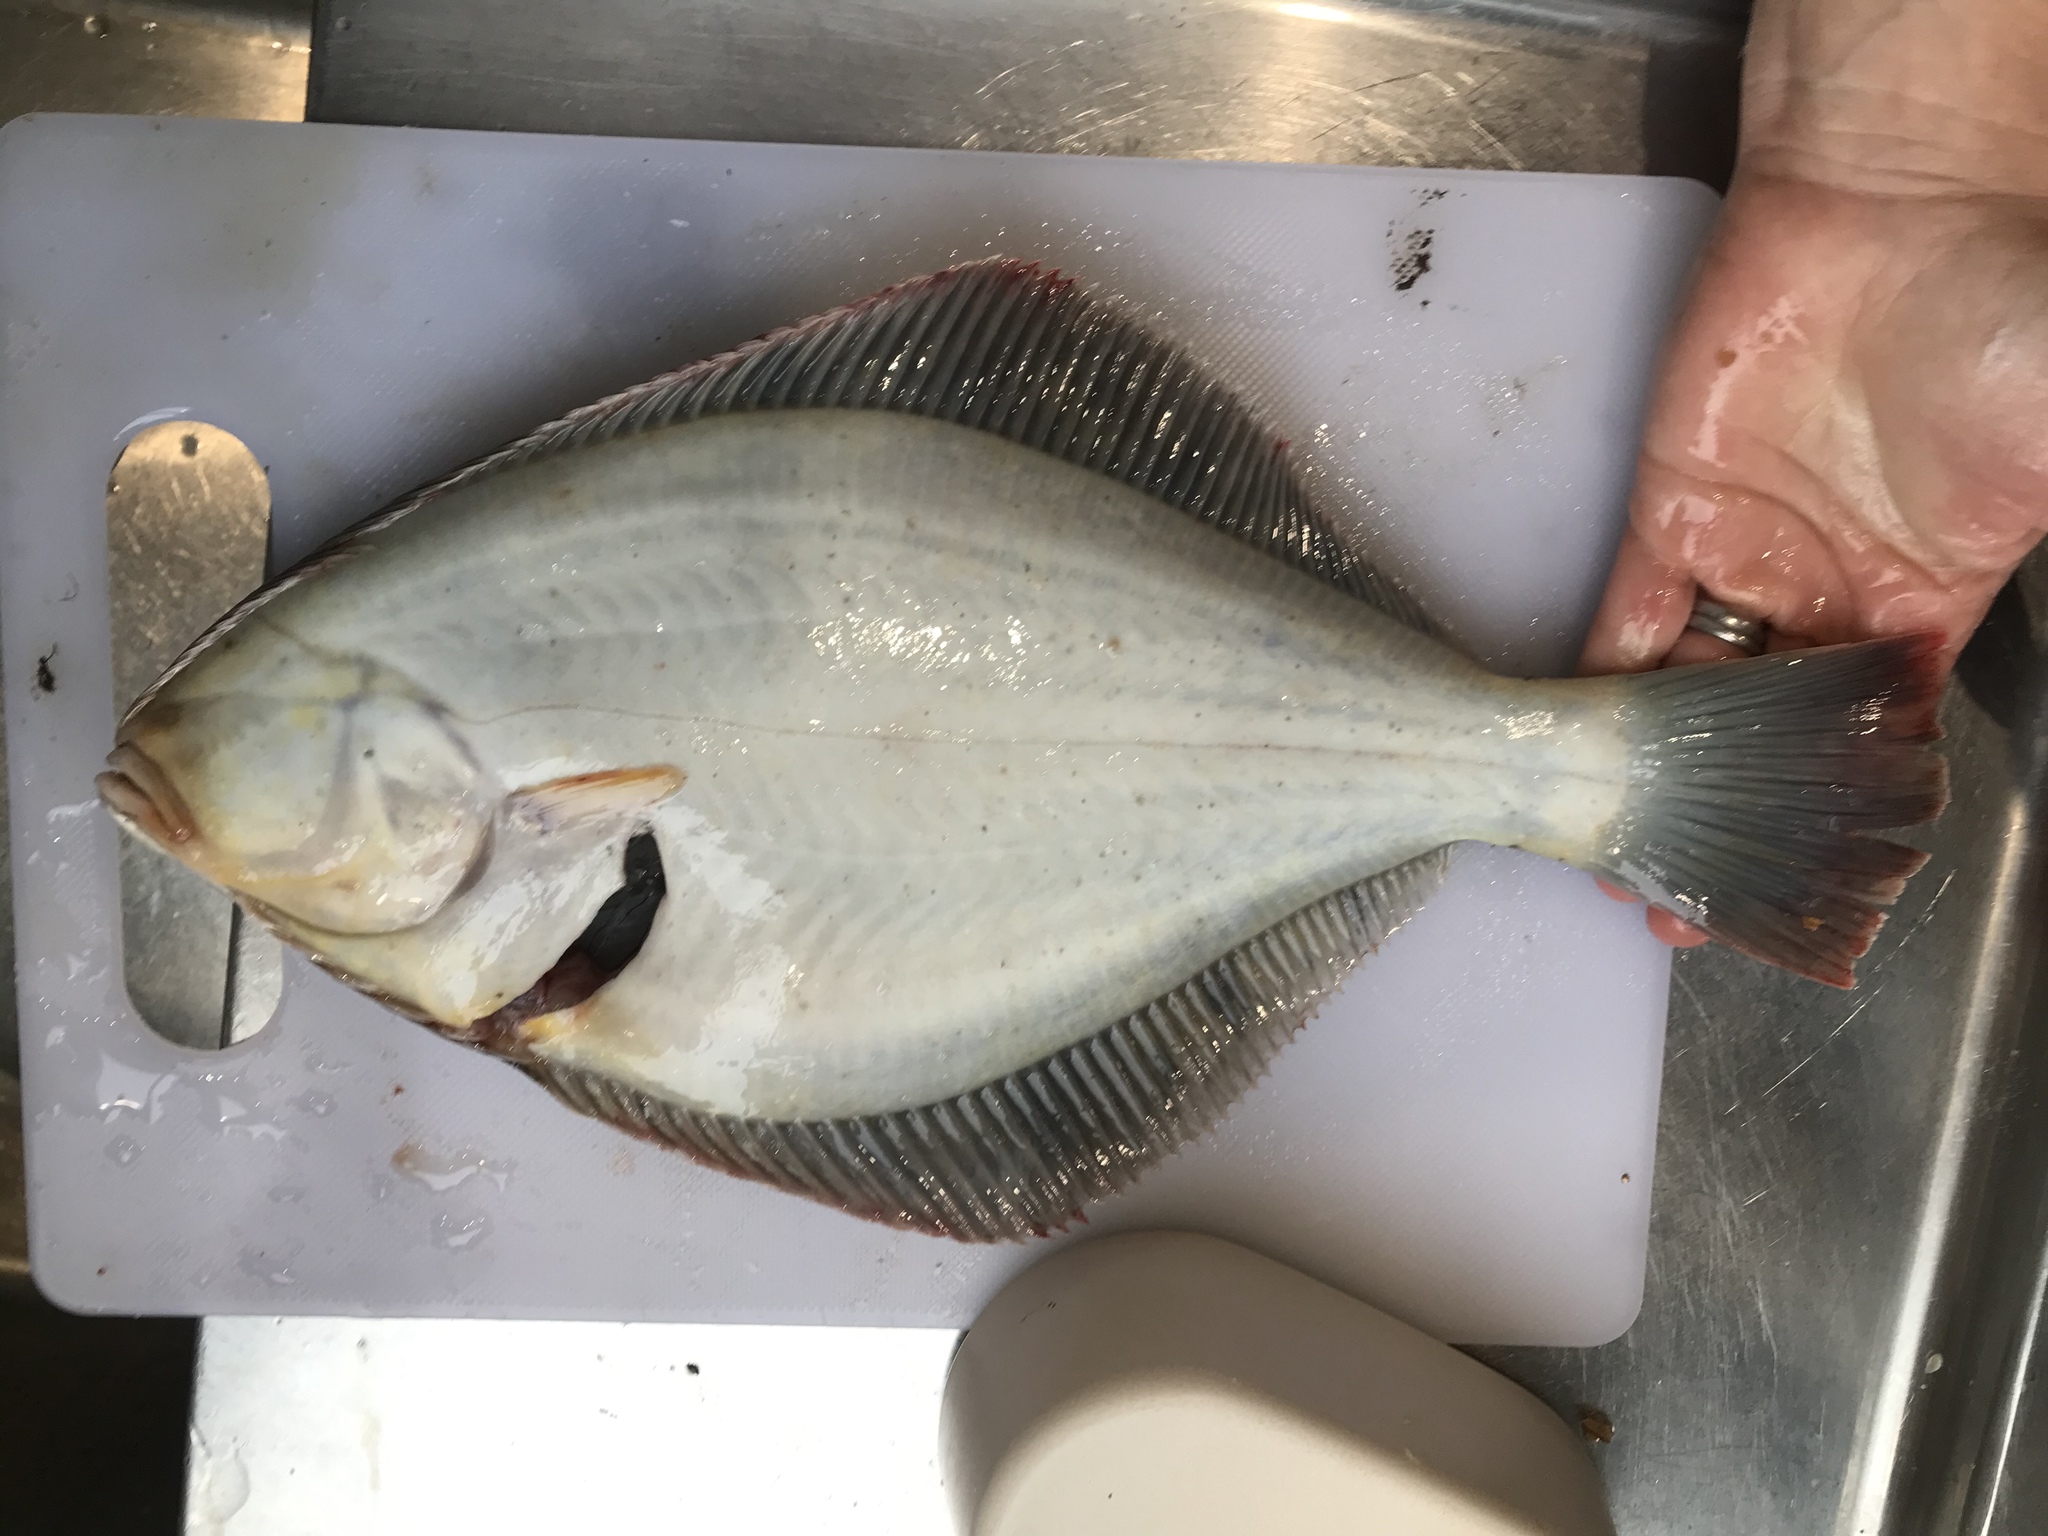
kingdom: Animalia
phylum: Chordata
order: Pleuronectiformes
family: Pleuronectidae
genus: Rhombosolea
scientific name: Rhombosolea leporina
